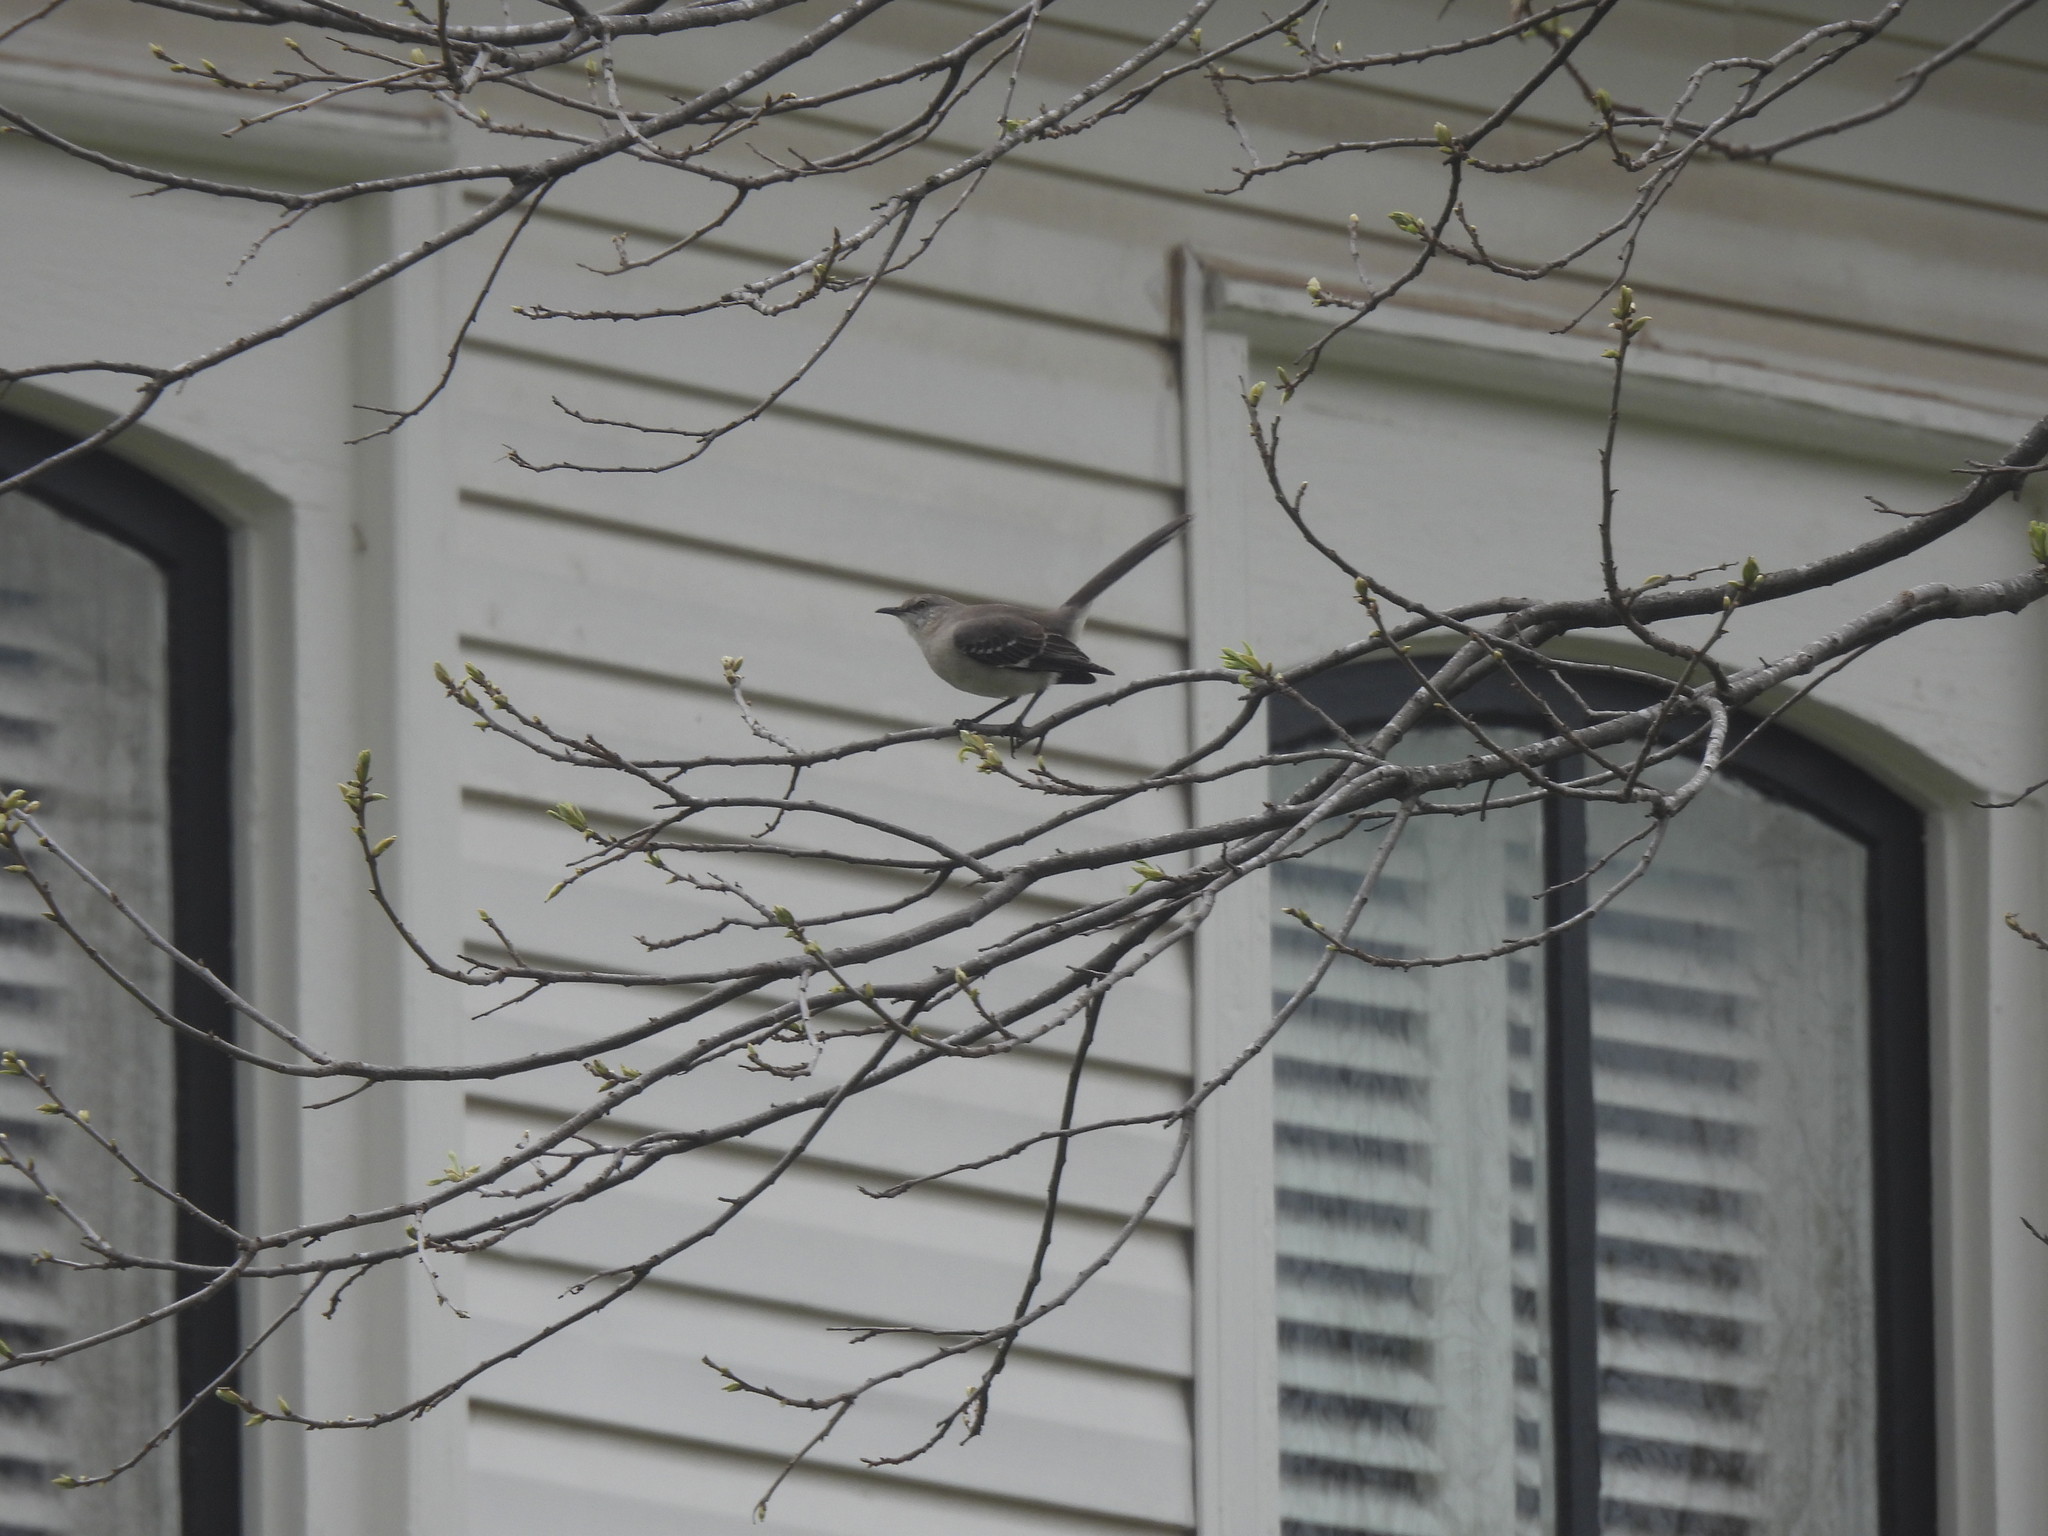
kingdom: Animalia
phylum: Chordata
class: Aves
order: Passeriformes
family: Mimidae
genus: Mimus
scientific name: Mimus polyglottos
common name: Northern mockingbird
